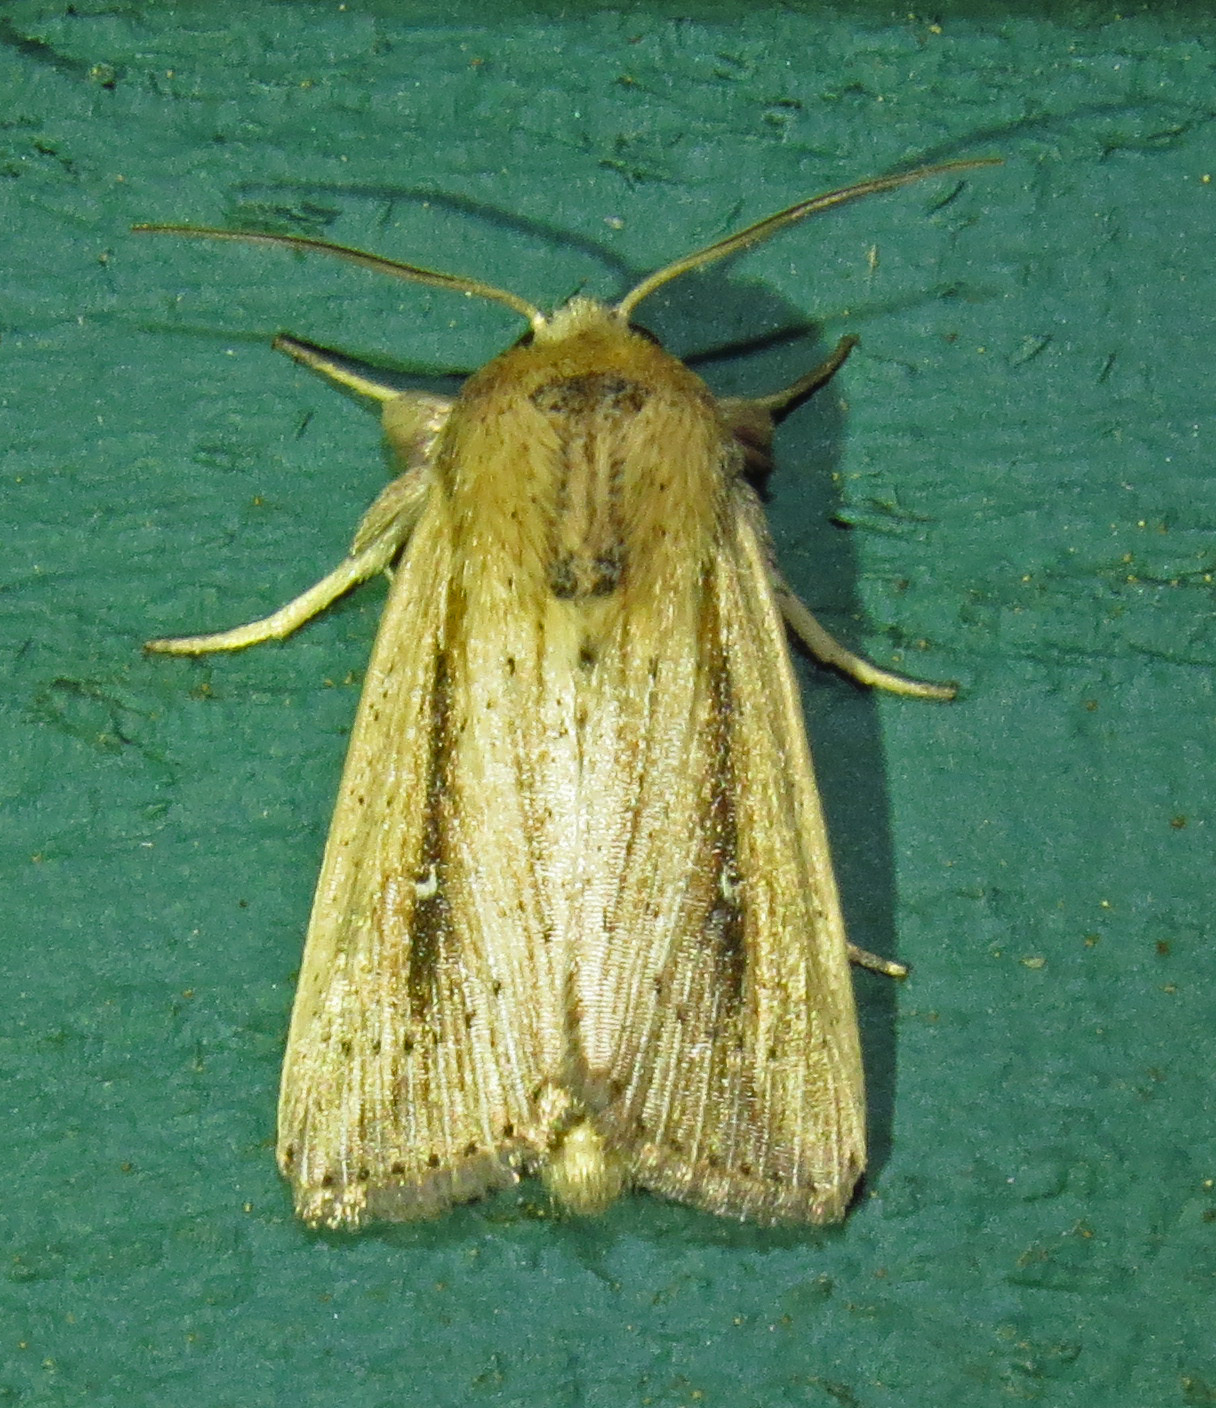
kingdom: Animalia
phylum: Arthropoda
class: Insecta
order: Lepidoptera
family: Noctuidae
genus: Leucania
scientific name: Leucania incognita
